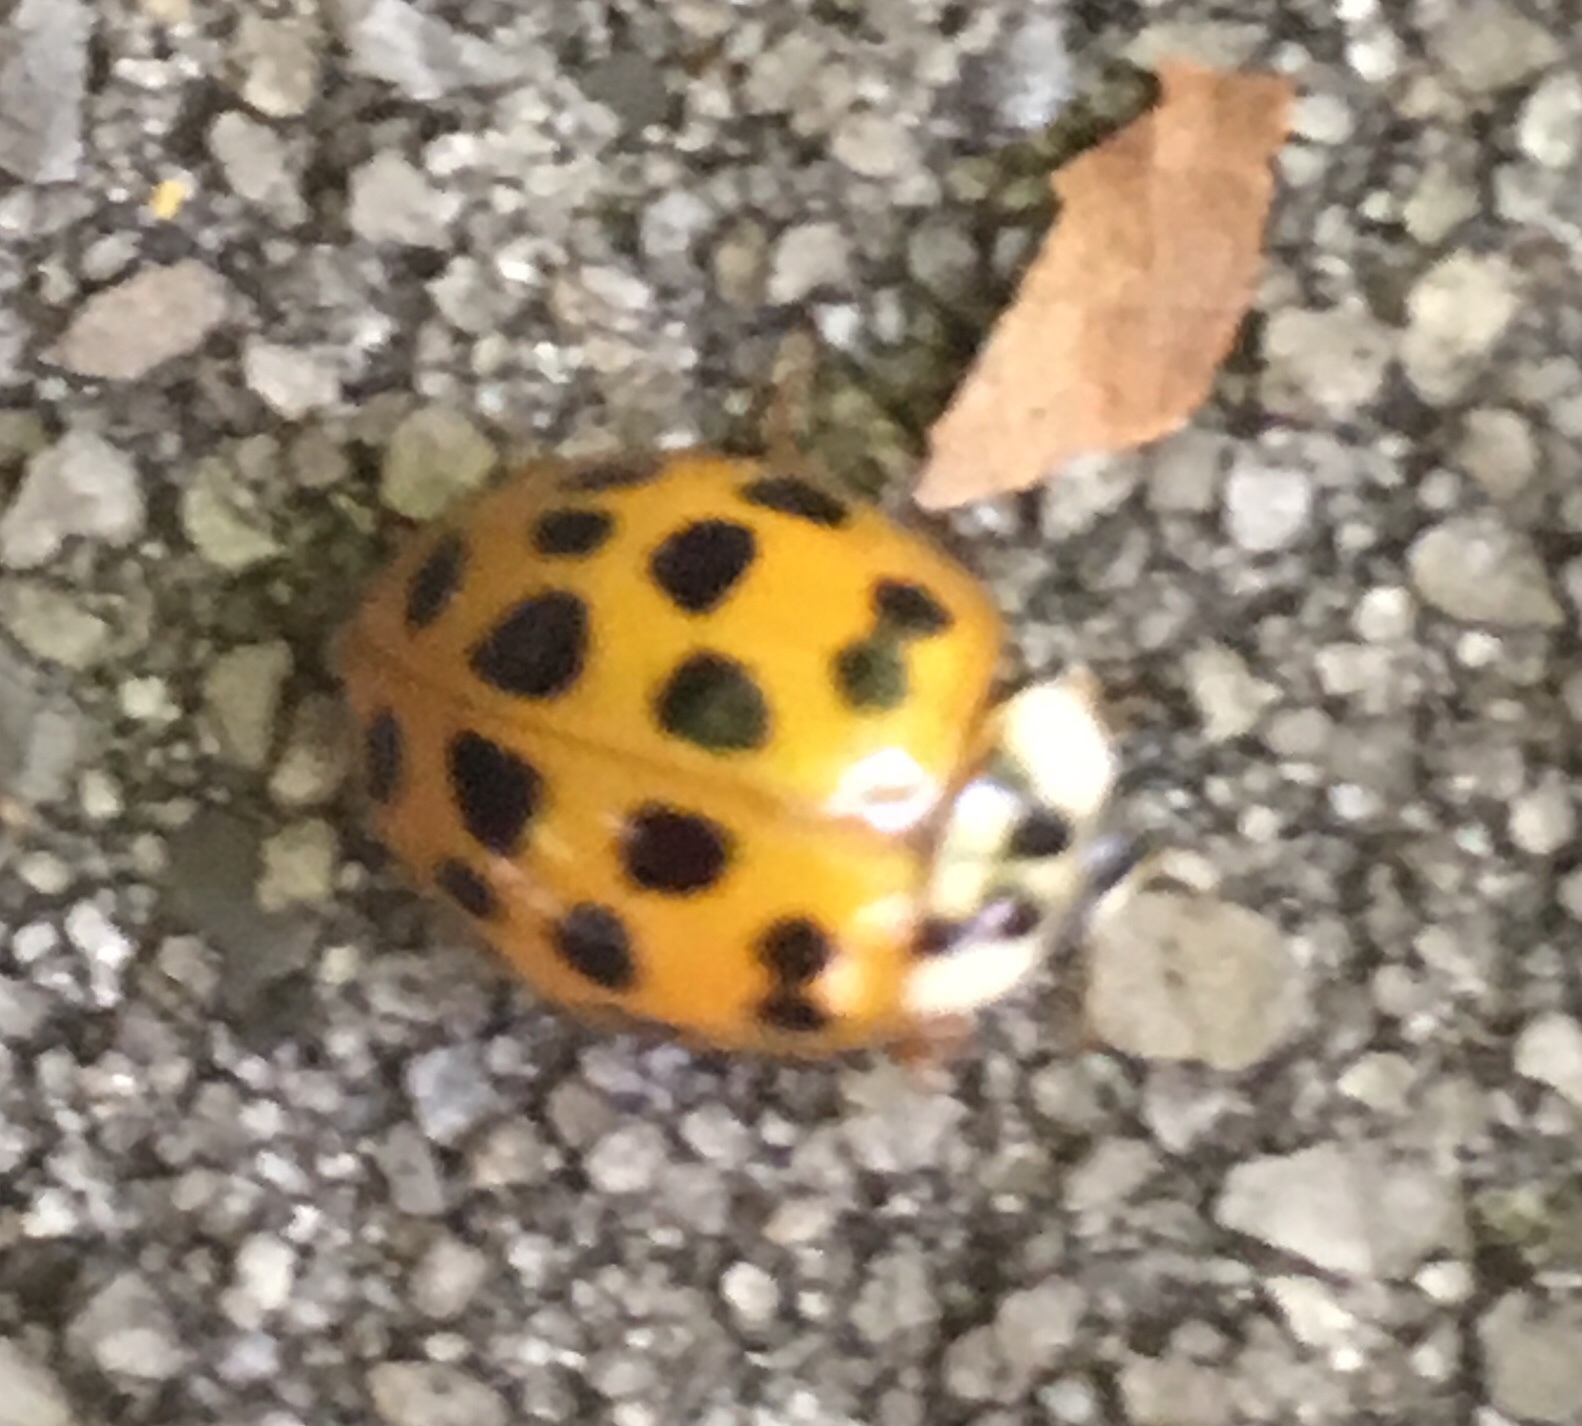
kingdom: Animalia
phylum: Arthropoda
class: Insecta
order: Coleoptera
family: Coccinellidae
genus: Harmonia
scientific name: Harmonia axyridis
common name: Harlequin ladybird
